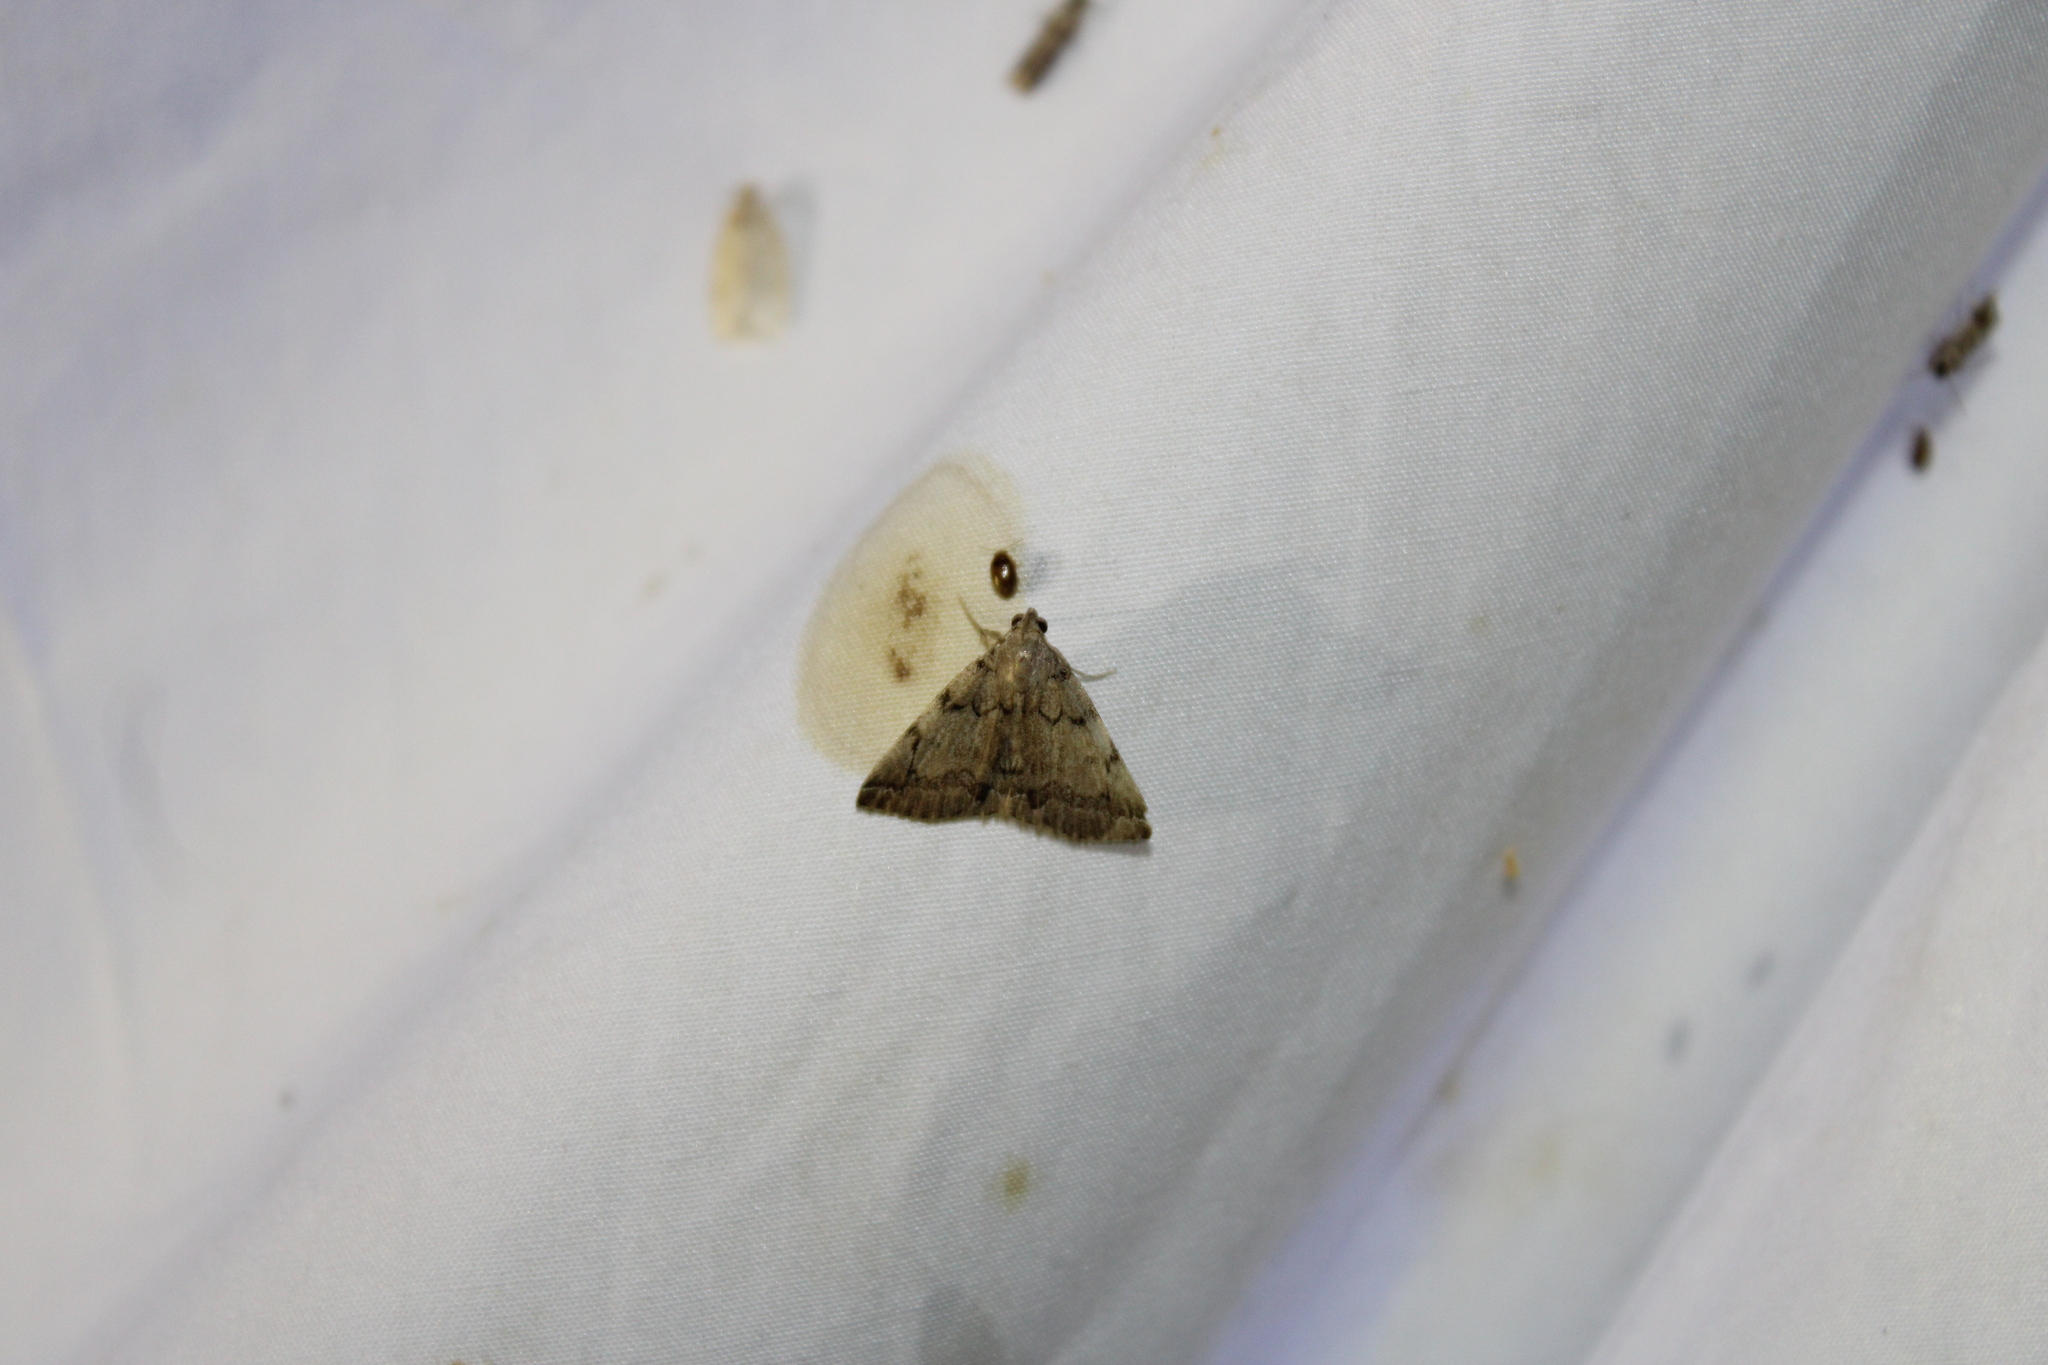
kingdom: Animalia
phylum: Arthropoda
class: Insecta
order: Lepidoptera
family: Erebidae
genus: Zanclognatha
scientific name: Zanclognatha theralis
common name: Flagged fan-foot
